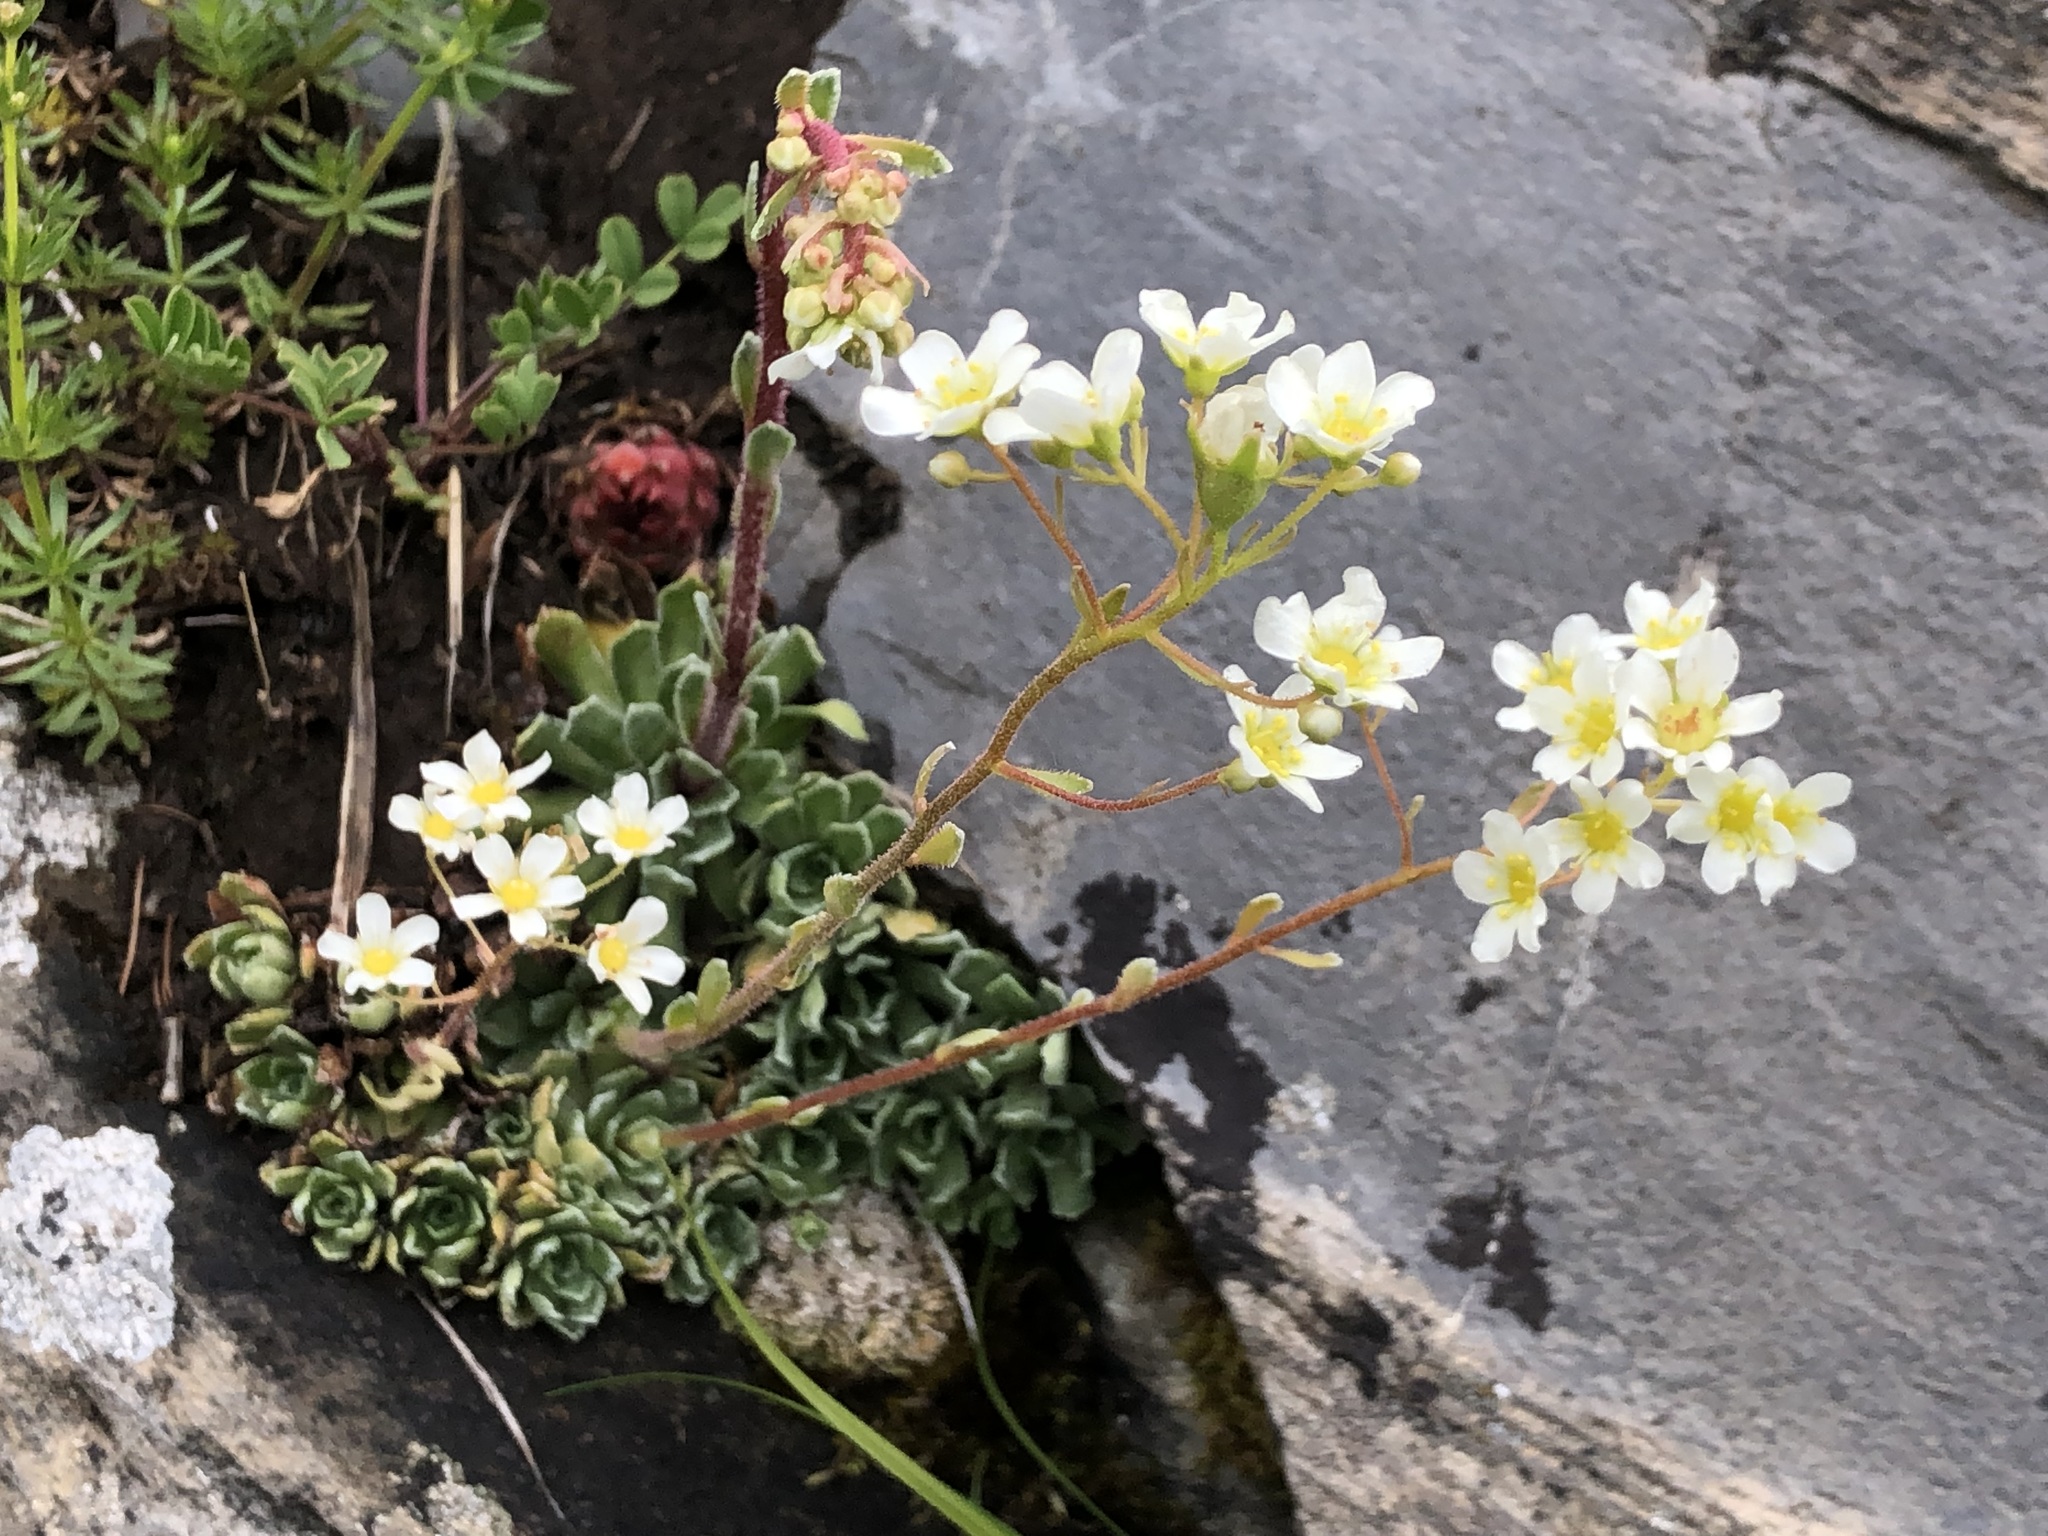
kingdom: Plantae
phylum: Tracheophyta
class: Magnoliopsida
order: Saxifragales
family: Saxifragaceae
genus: Saxifraga
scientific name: Saxifraga paniculata
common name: Livelong saxifrage
